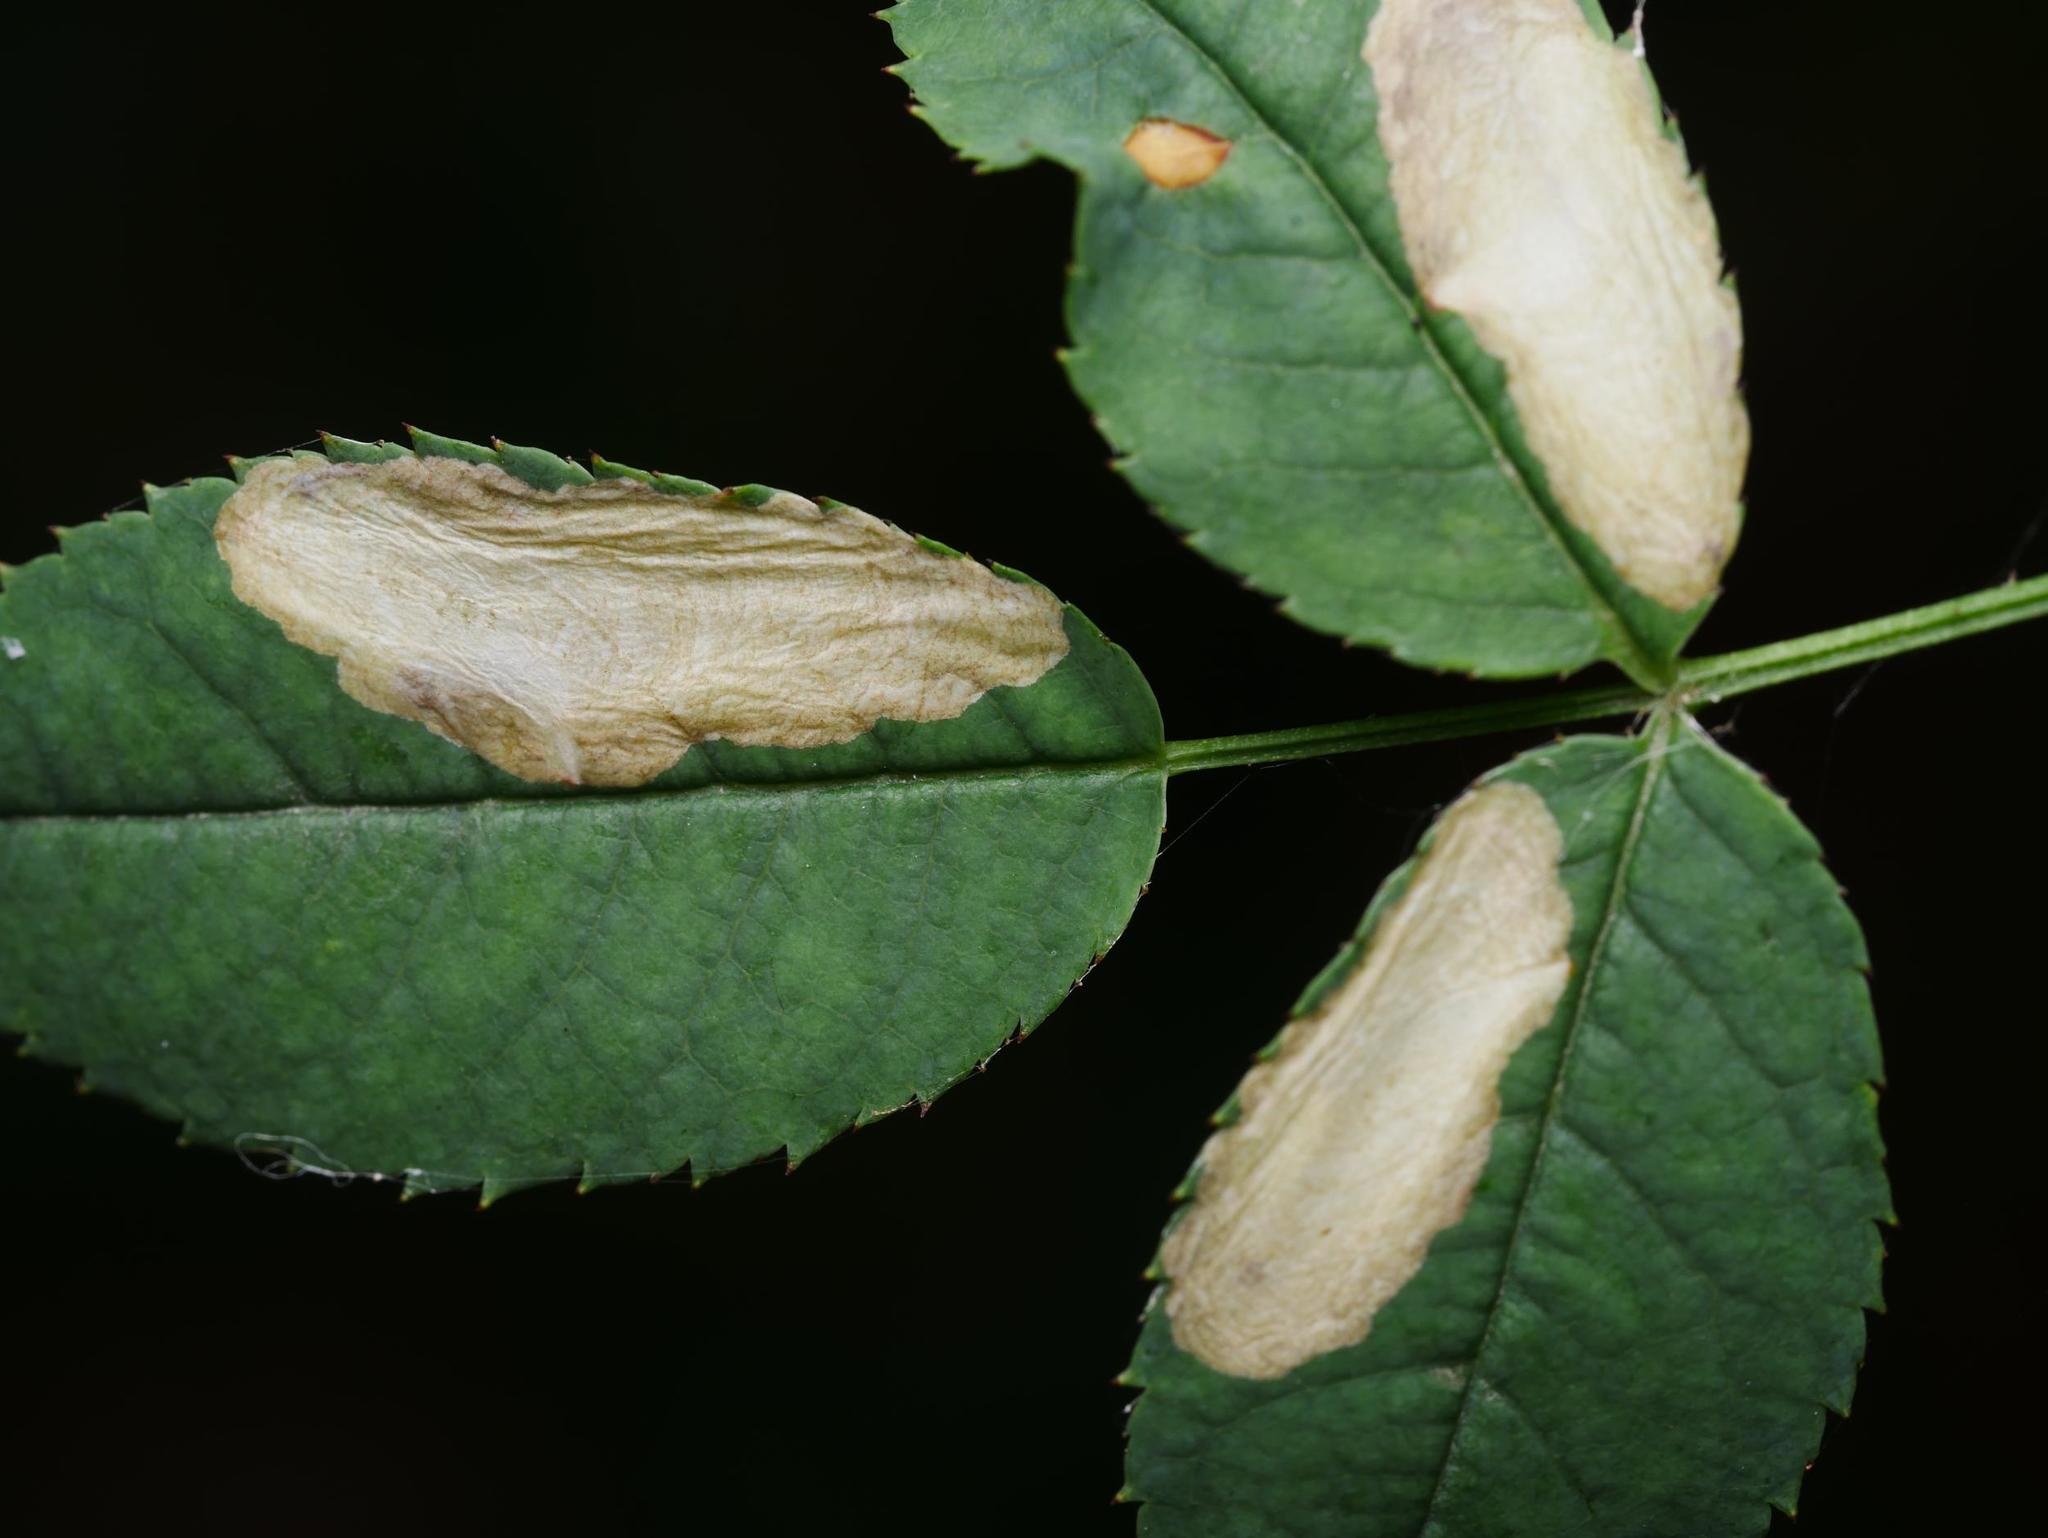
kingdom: Animalia
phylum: Arthropoda
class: Insecta
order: Lepidoptera
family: Tischeriidae
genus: Coptotriche
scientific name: Coptotriche angusticolella
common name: Rose carl
